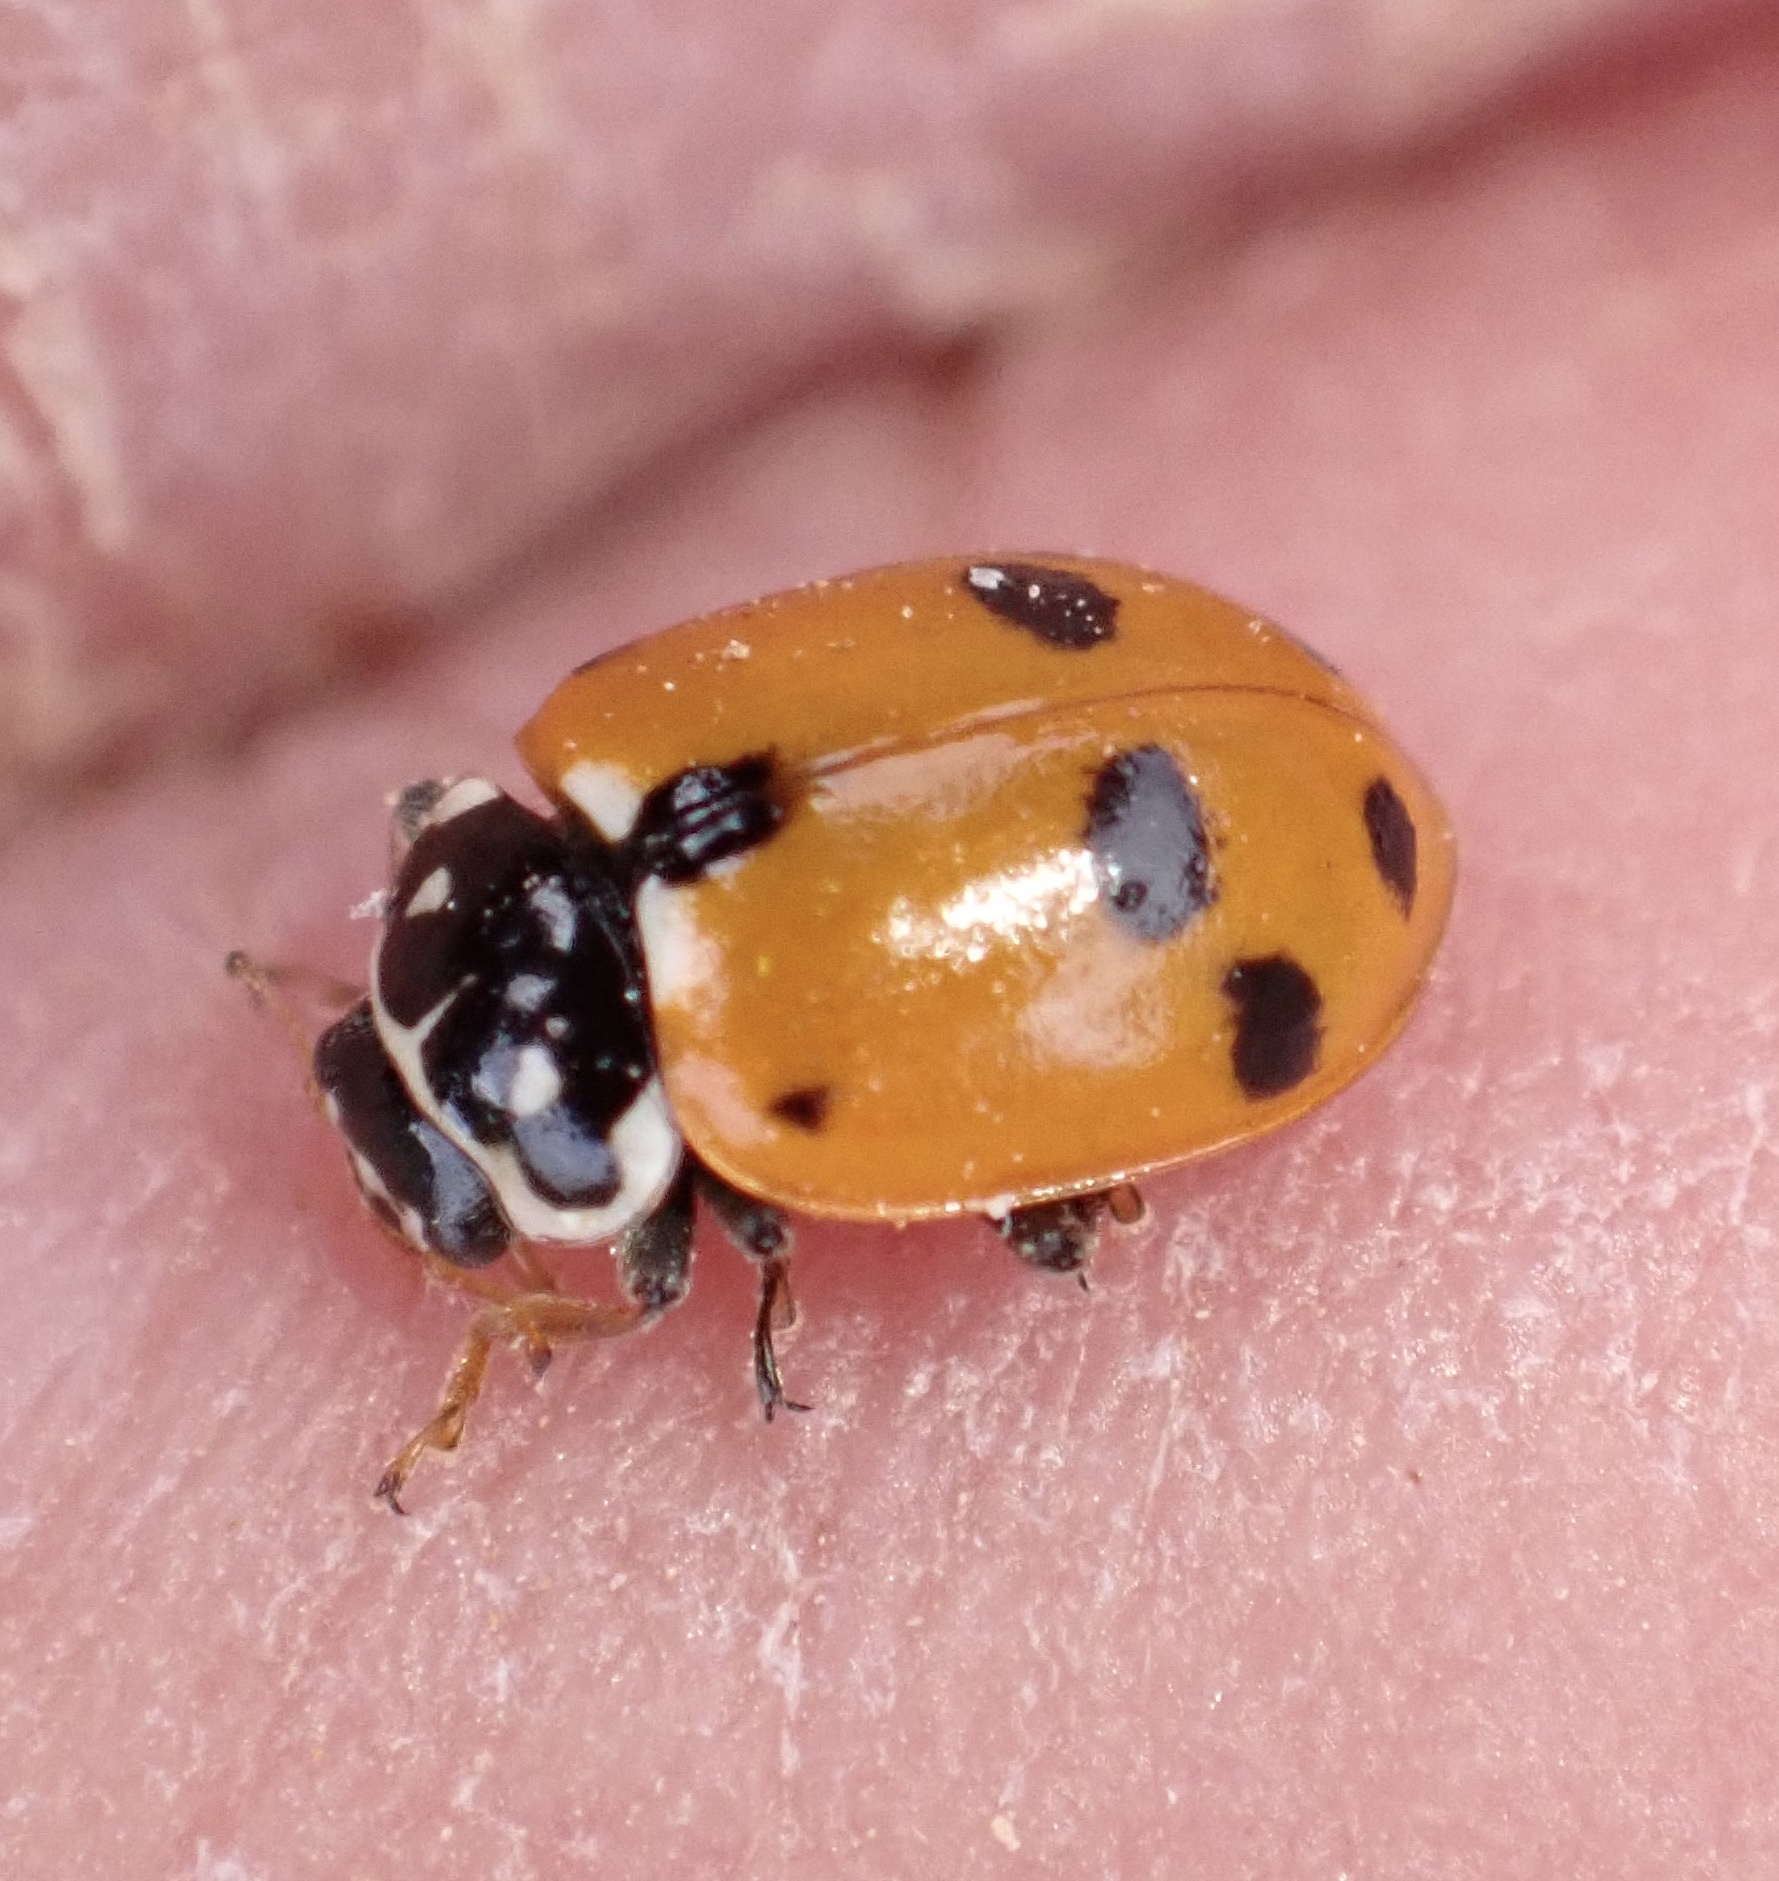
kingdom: Animalia
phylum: Arthropoda
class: Insecta
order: Coleoptera
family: Coccinellidae
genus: Hippodamia
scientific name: Hippodamia variegata
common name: Ladybird beetle
